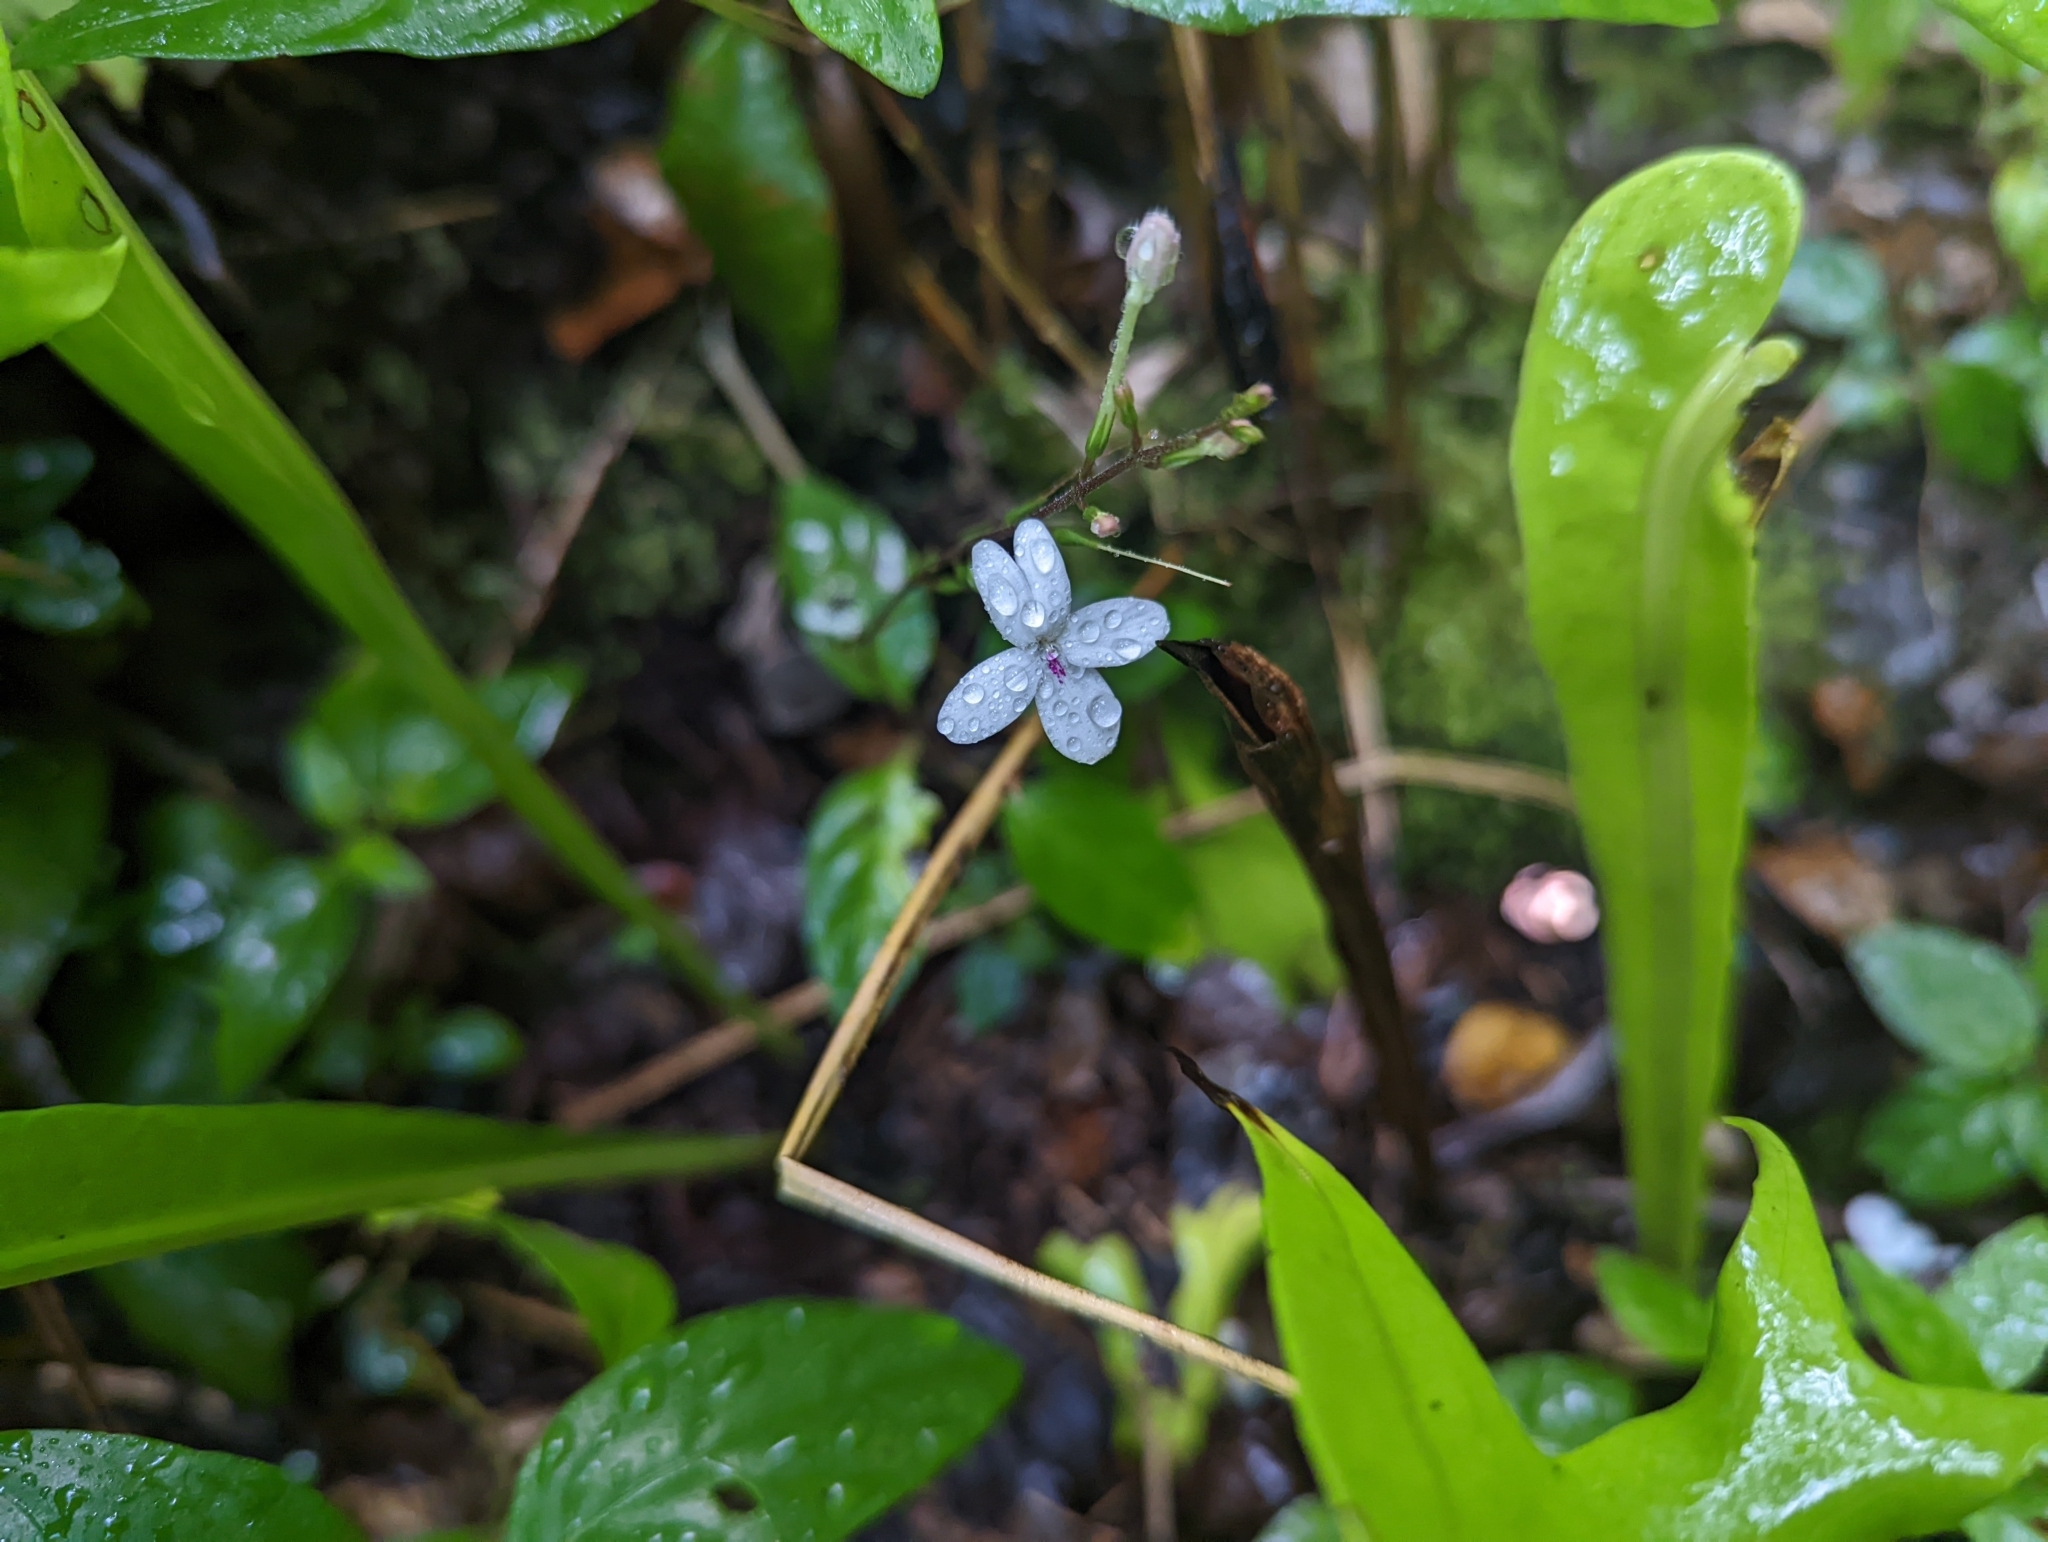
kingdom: Plantae
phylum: Tracheophyta
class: Magnoliopsida
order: Lamiales
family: Acanthaceae
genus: Pseuderanthemum
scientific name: Pseuderanthemum variabile
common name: Night and afternoon
